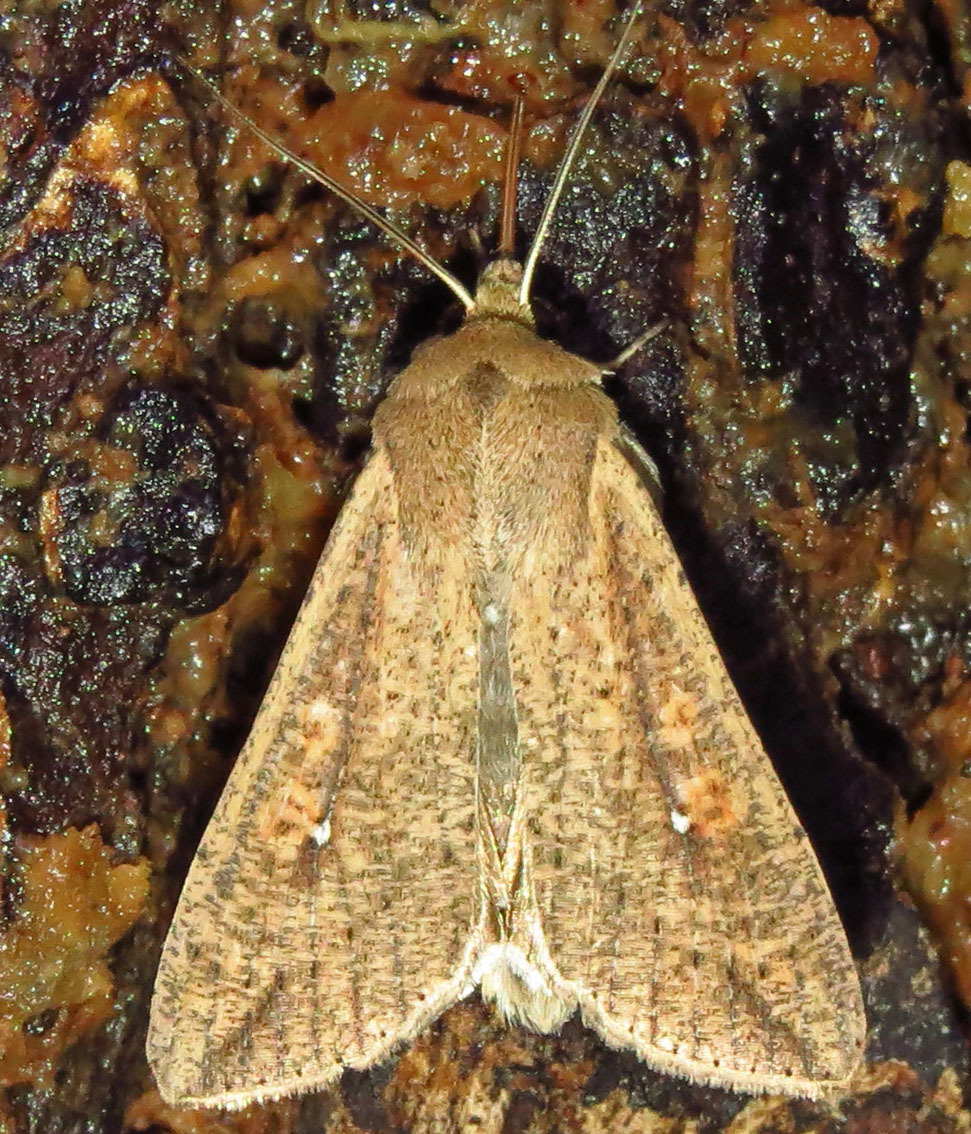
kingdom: Animalia
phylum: Arthropoda
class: Insecta
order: Lepidoptera
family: Noctuidae
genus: Mythimna
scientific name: Mythimna unipuncta
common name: White-speck
